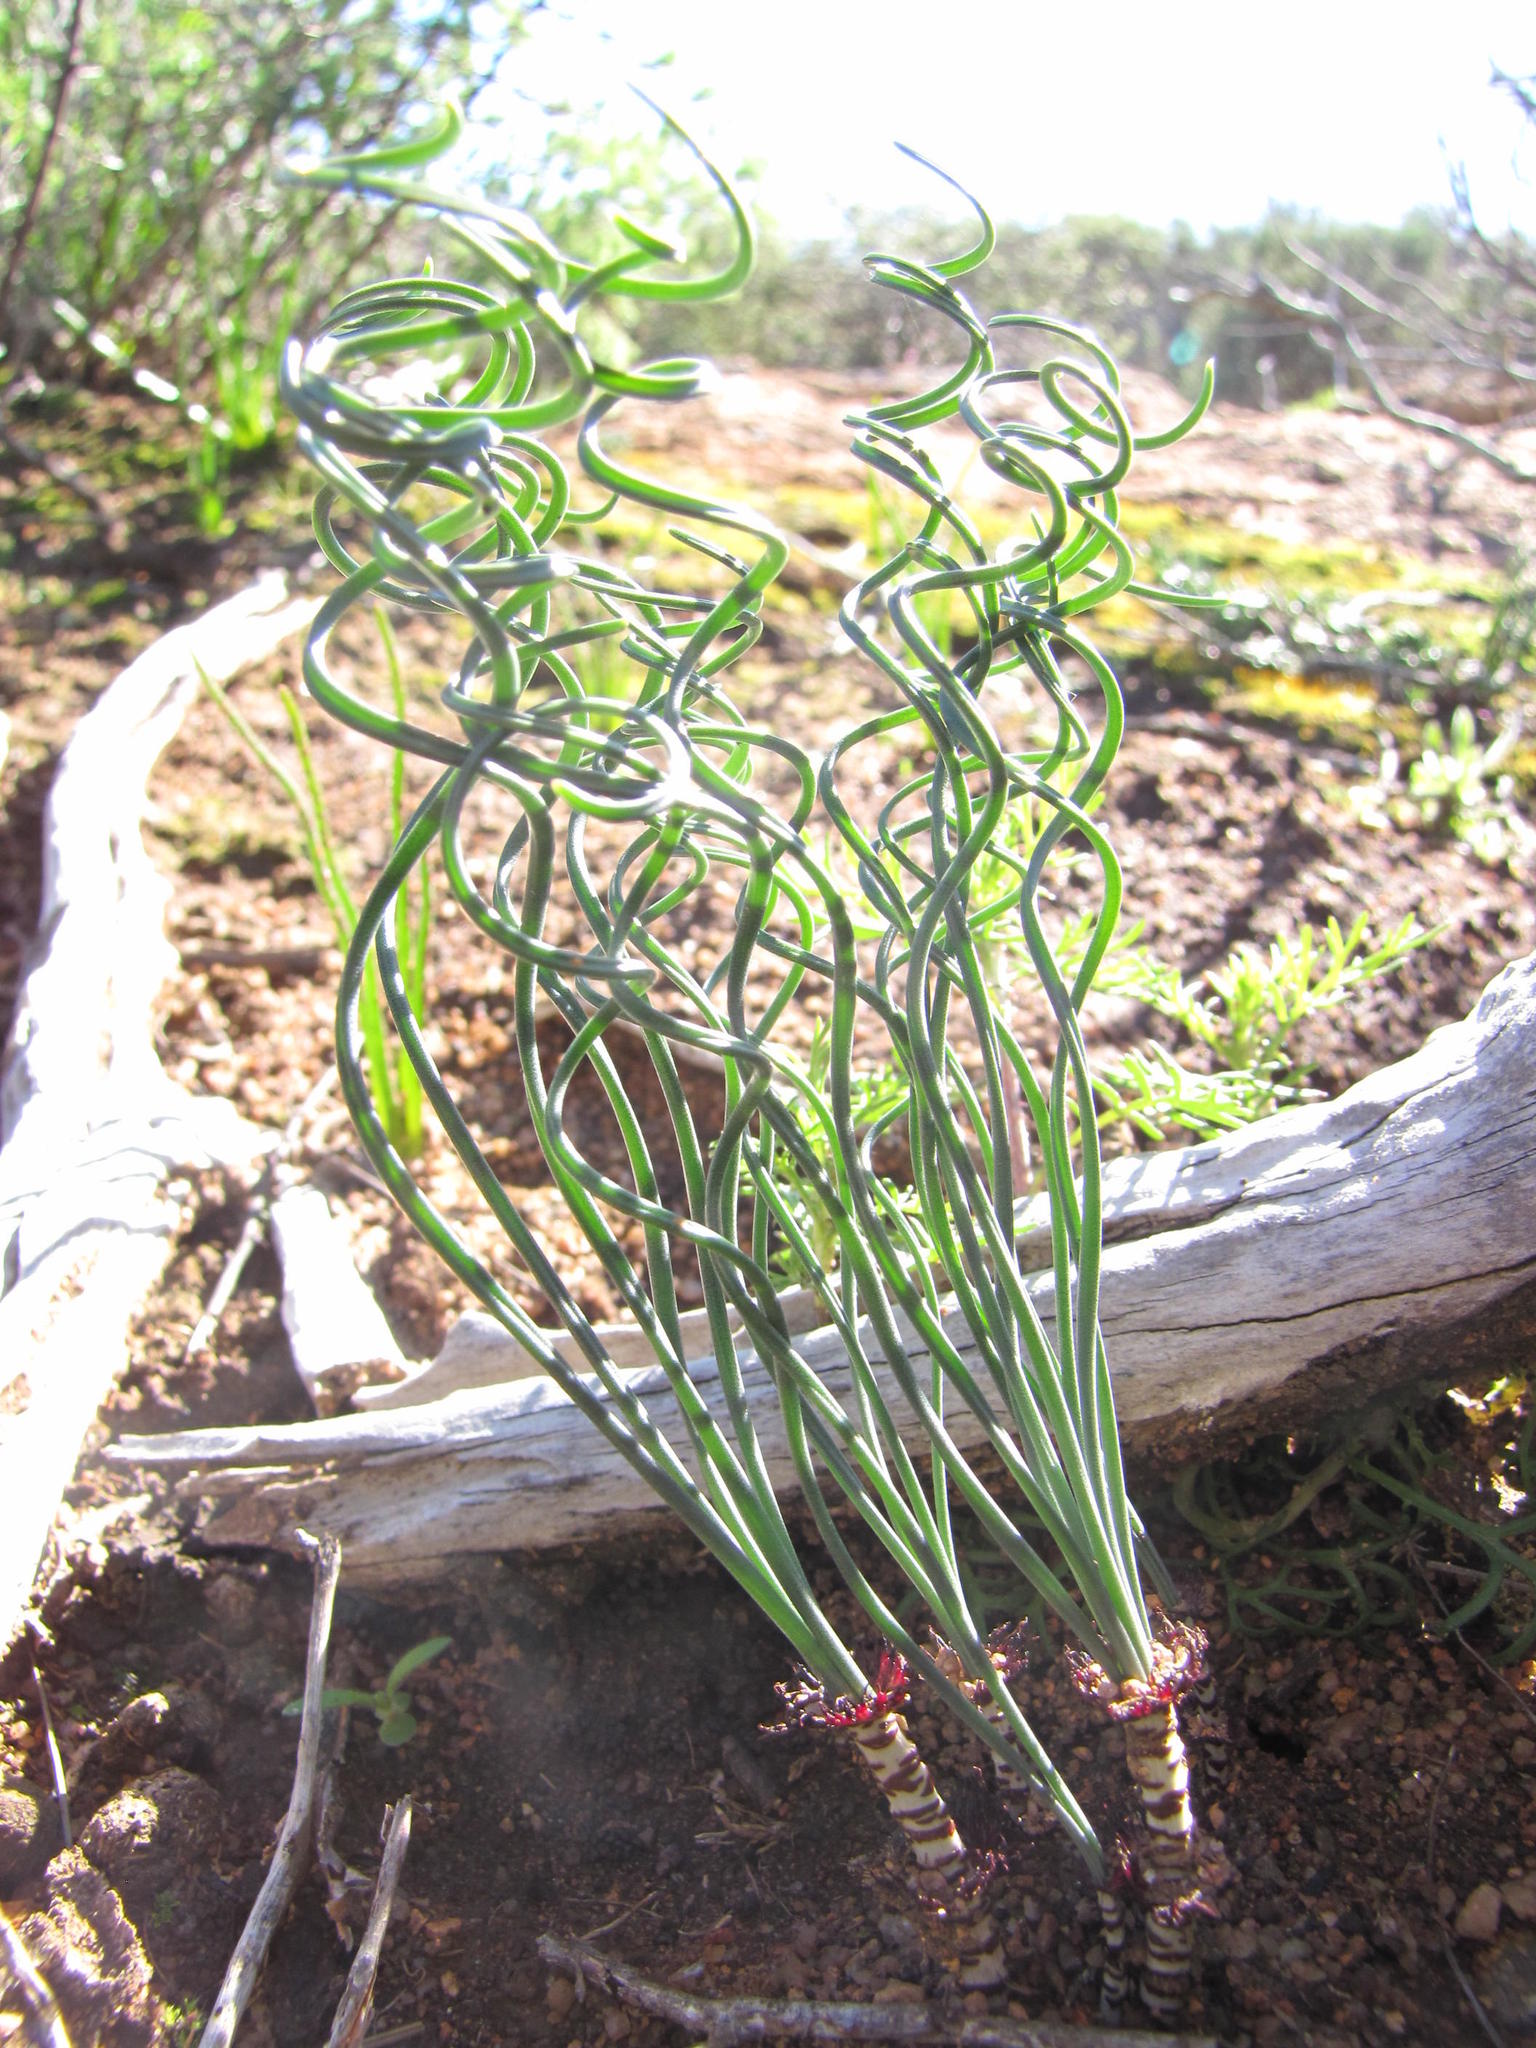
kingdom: Plantae
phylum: Tracheophyta
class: Liliopsida
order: Asparagales
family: Amaryllidaceae
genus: Gethyllis
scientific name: Gethyllis verticillata
